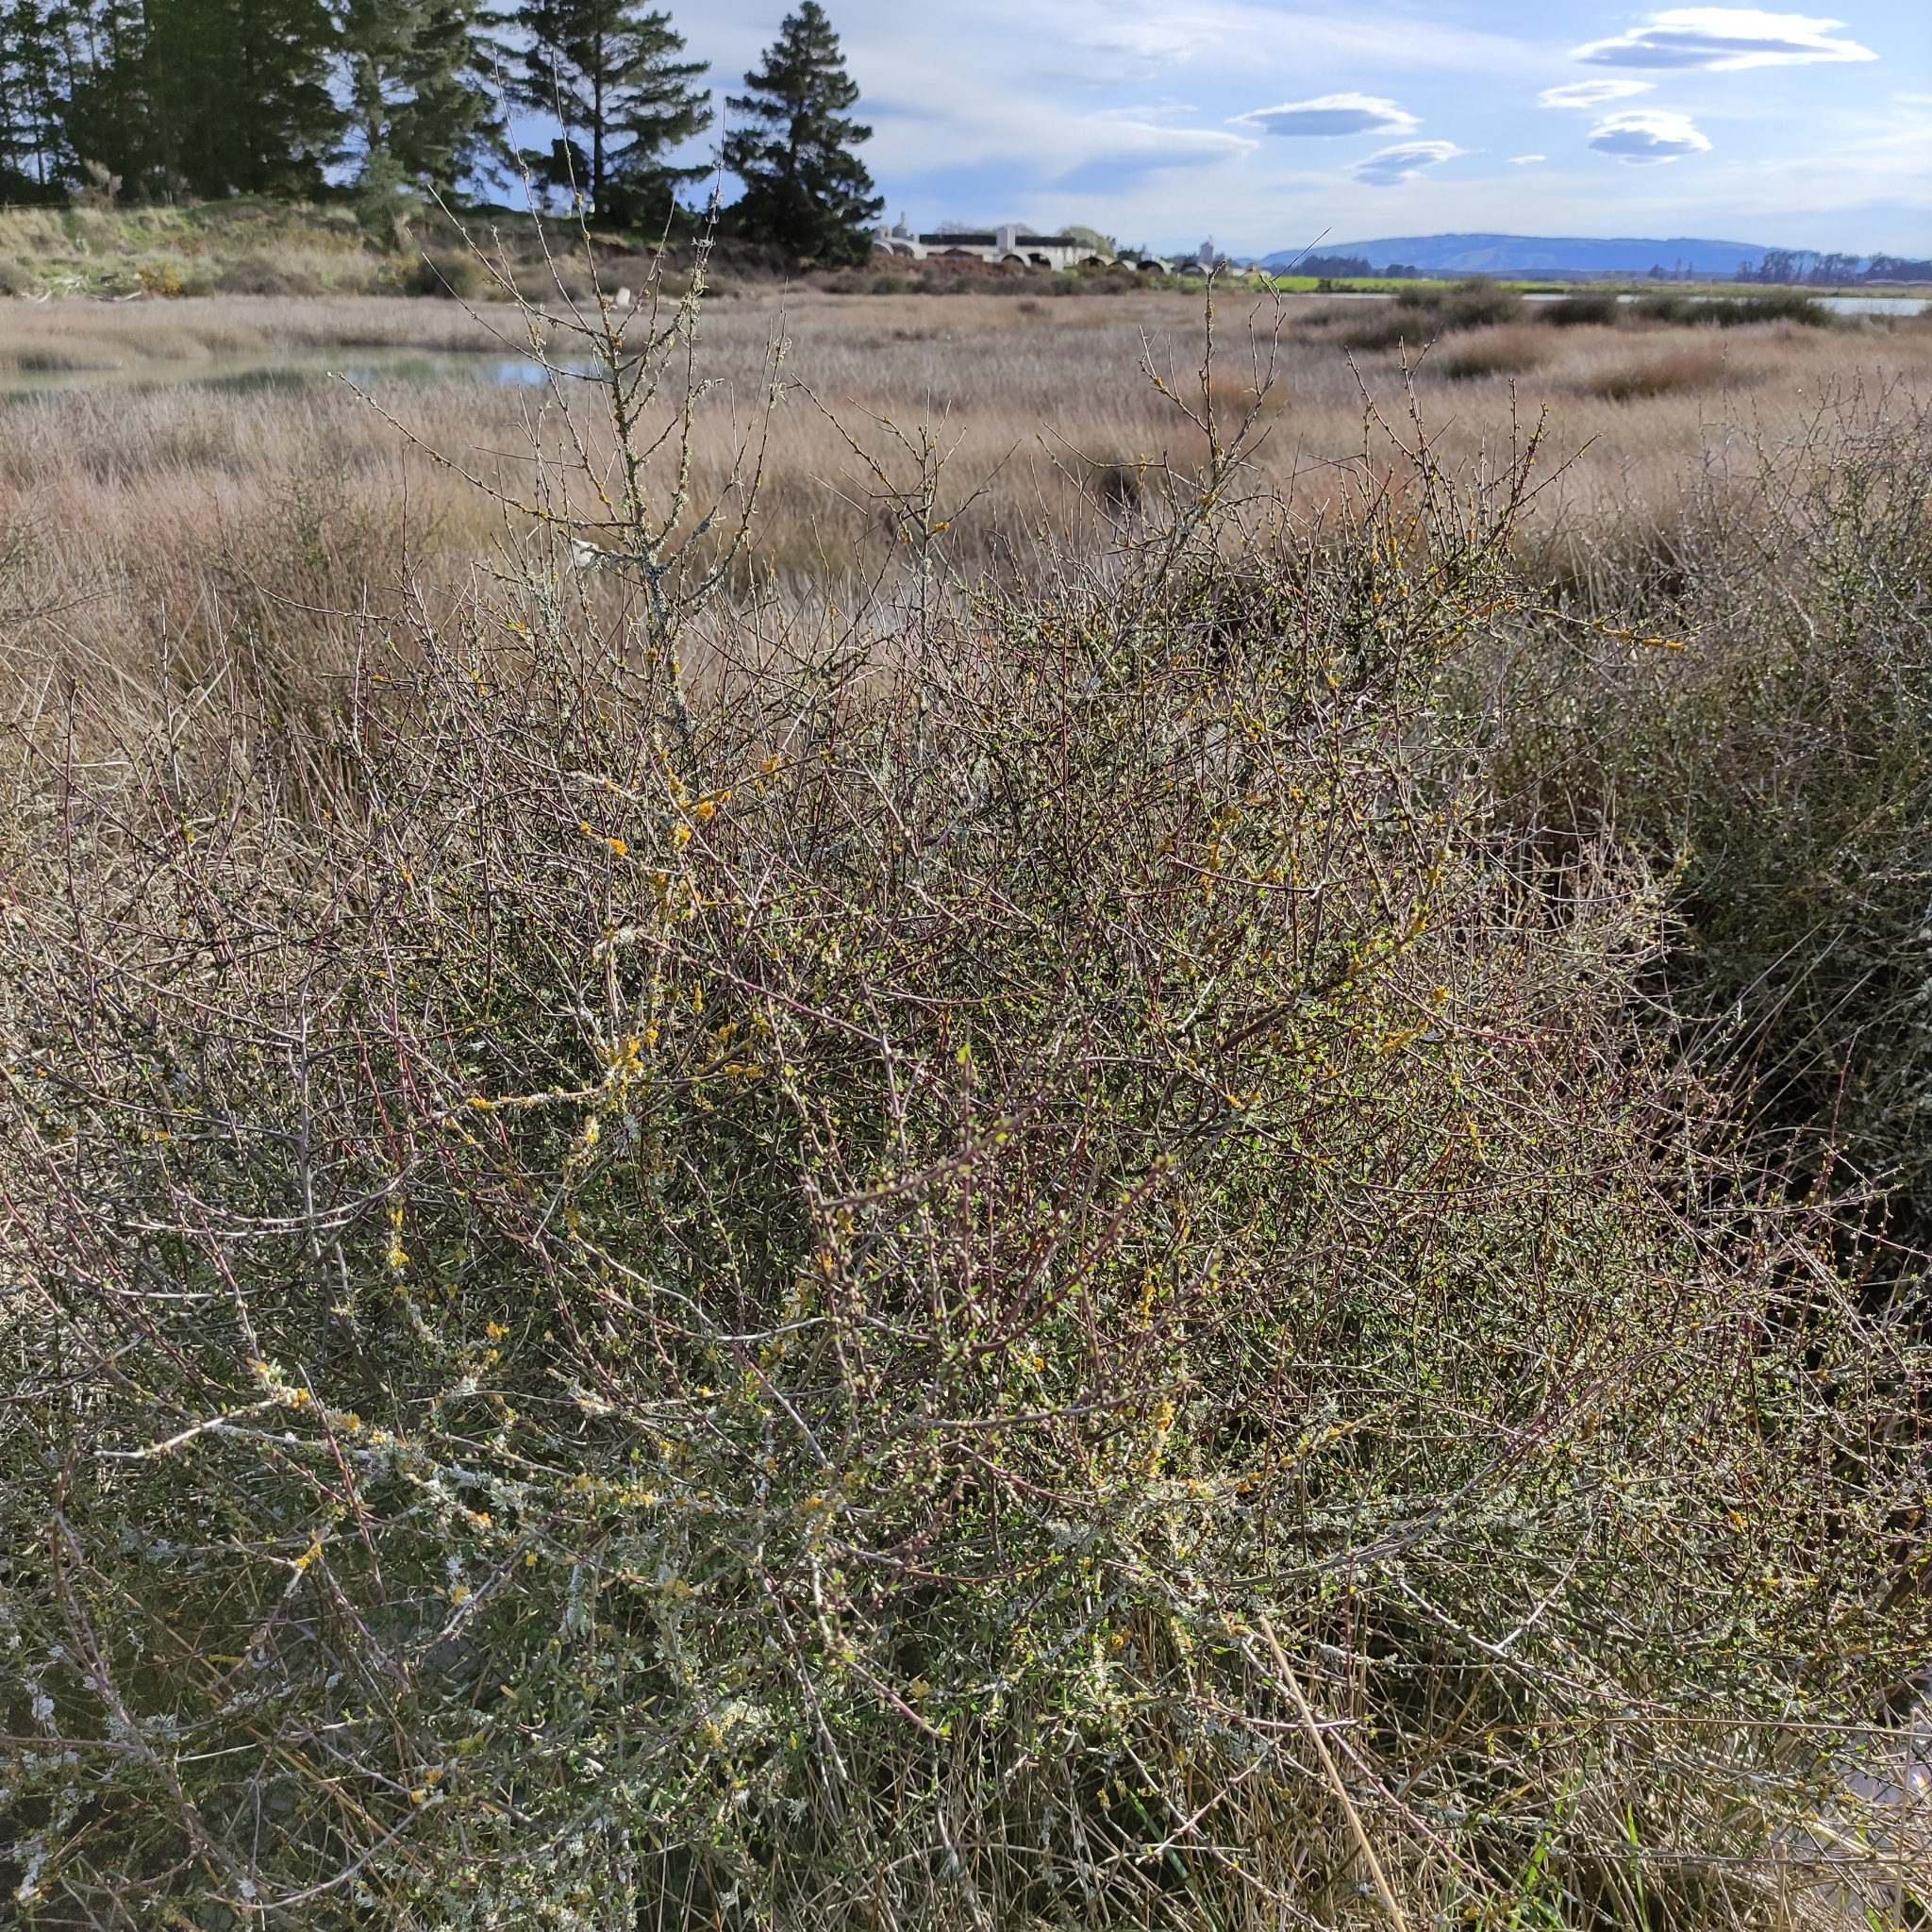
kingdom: Plantae
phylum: Tracheophyta
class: Magnoliopsida
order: Malvales
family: Malvaceae
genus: Plagianthus
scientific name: Plagianthus divaricatus
